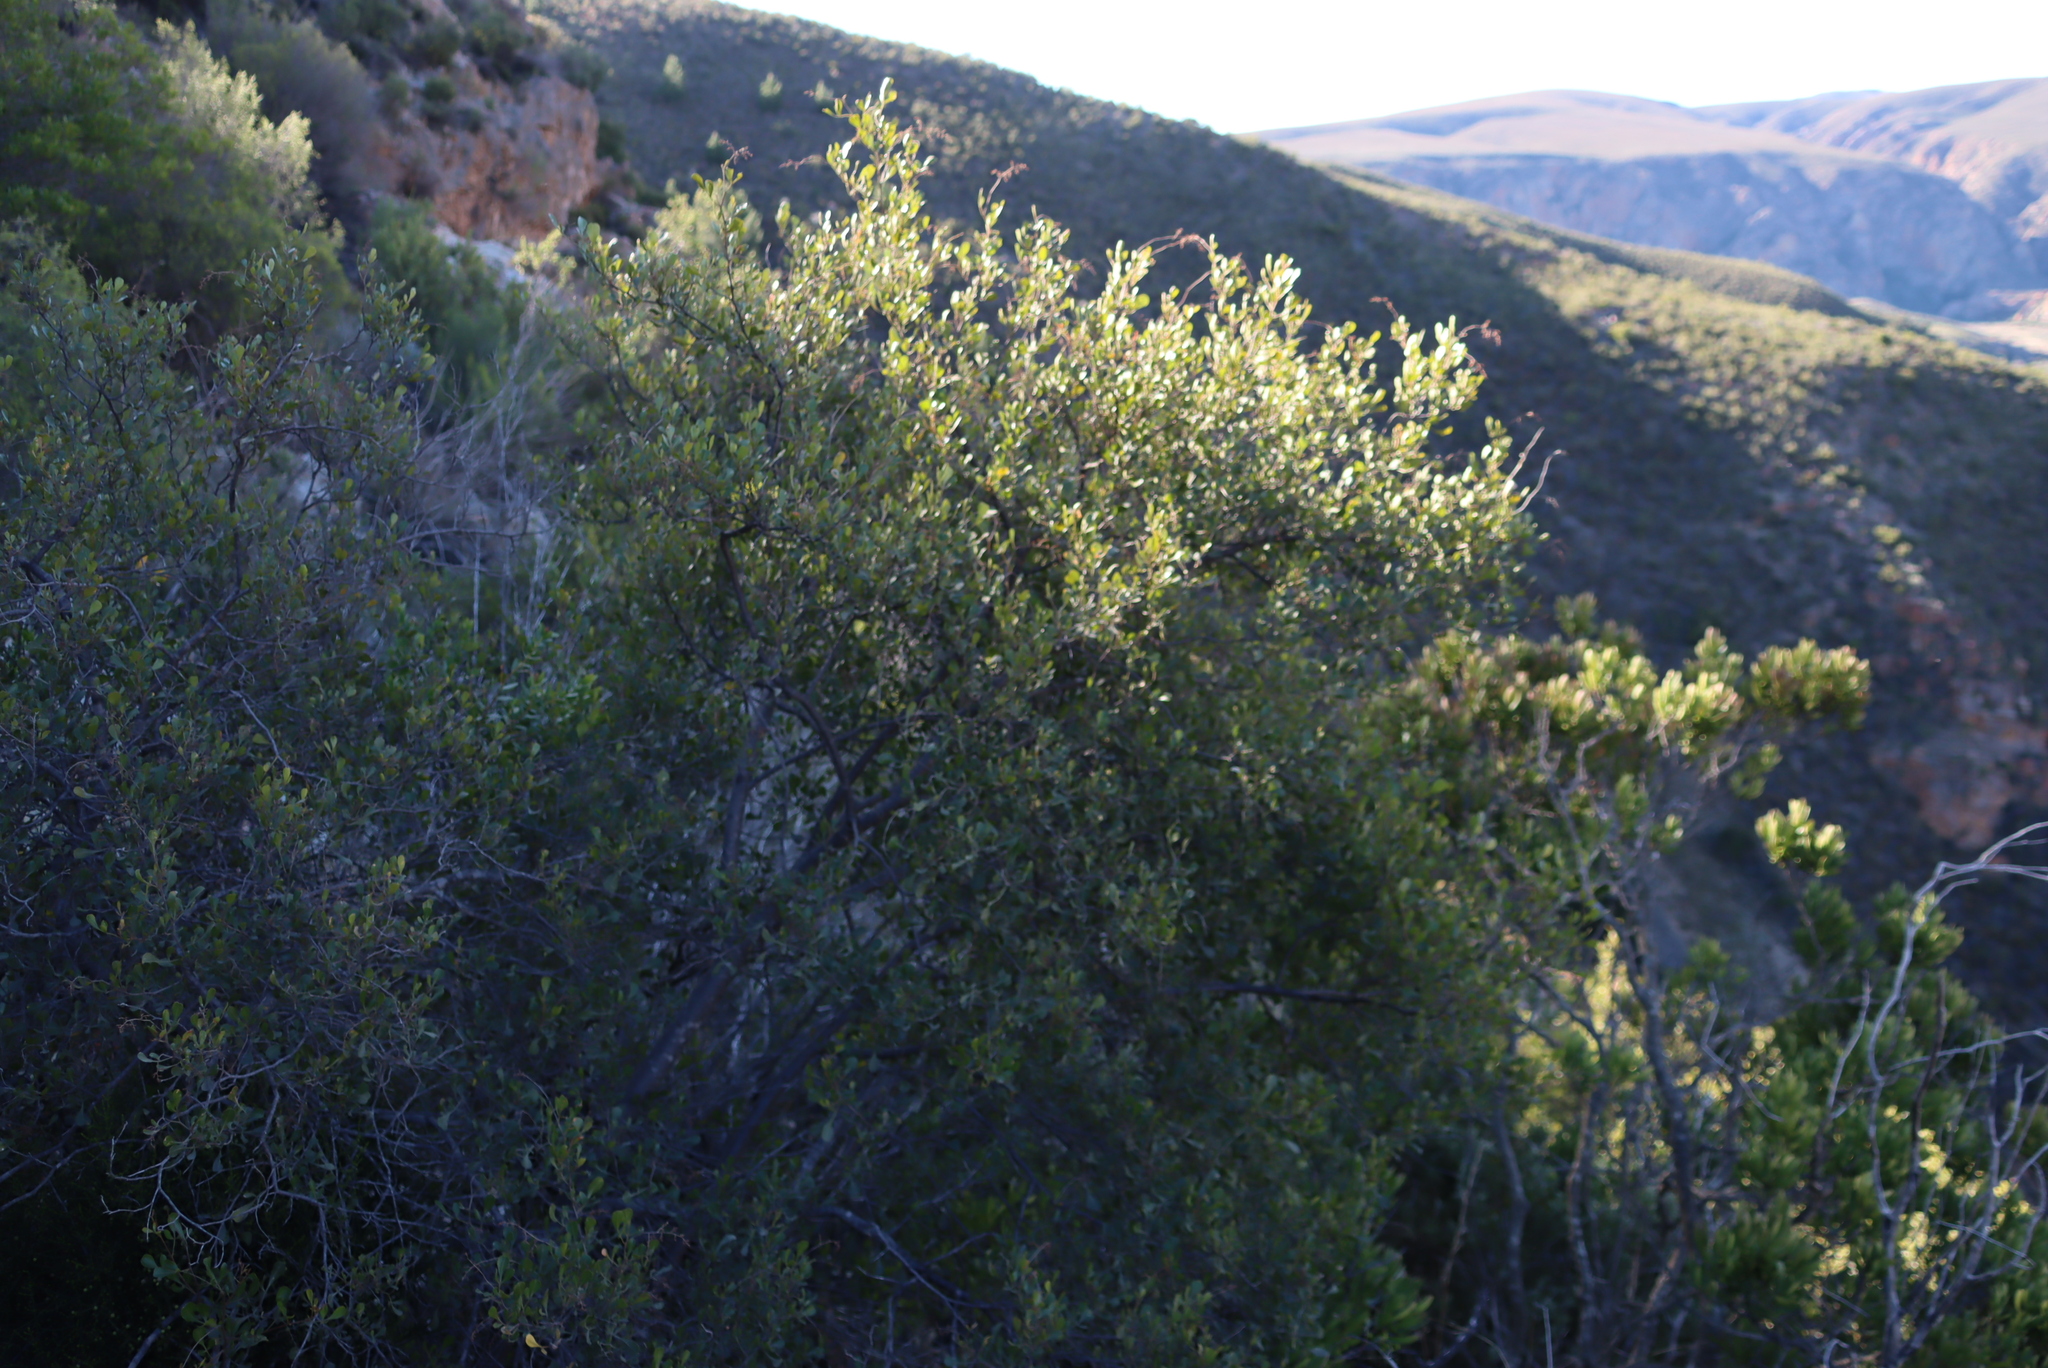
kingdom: Plantae
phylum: Tracheophyta
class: Magnoliopsida
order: Sapindales
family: Anacardiaceae
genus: Searsia
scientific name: Searsia pallens
